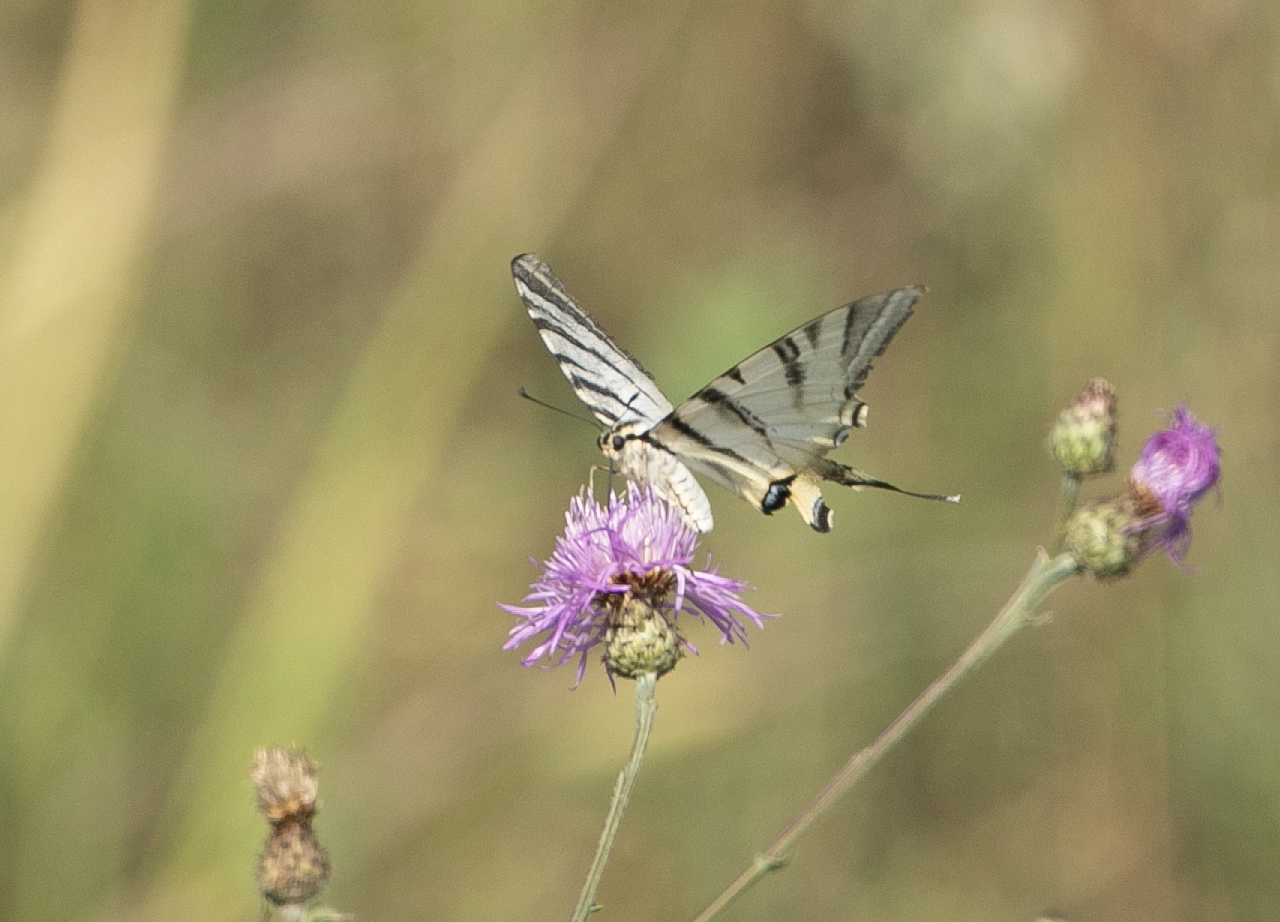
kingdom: Animalia
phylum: Arthropoda
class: Insecta
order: Lepidoptera
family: Papilionidae
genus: Iphiclides
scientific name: Iphiclides podalirius
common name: Scarce swallowtail
